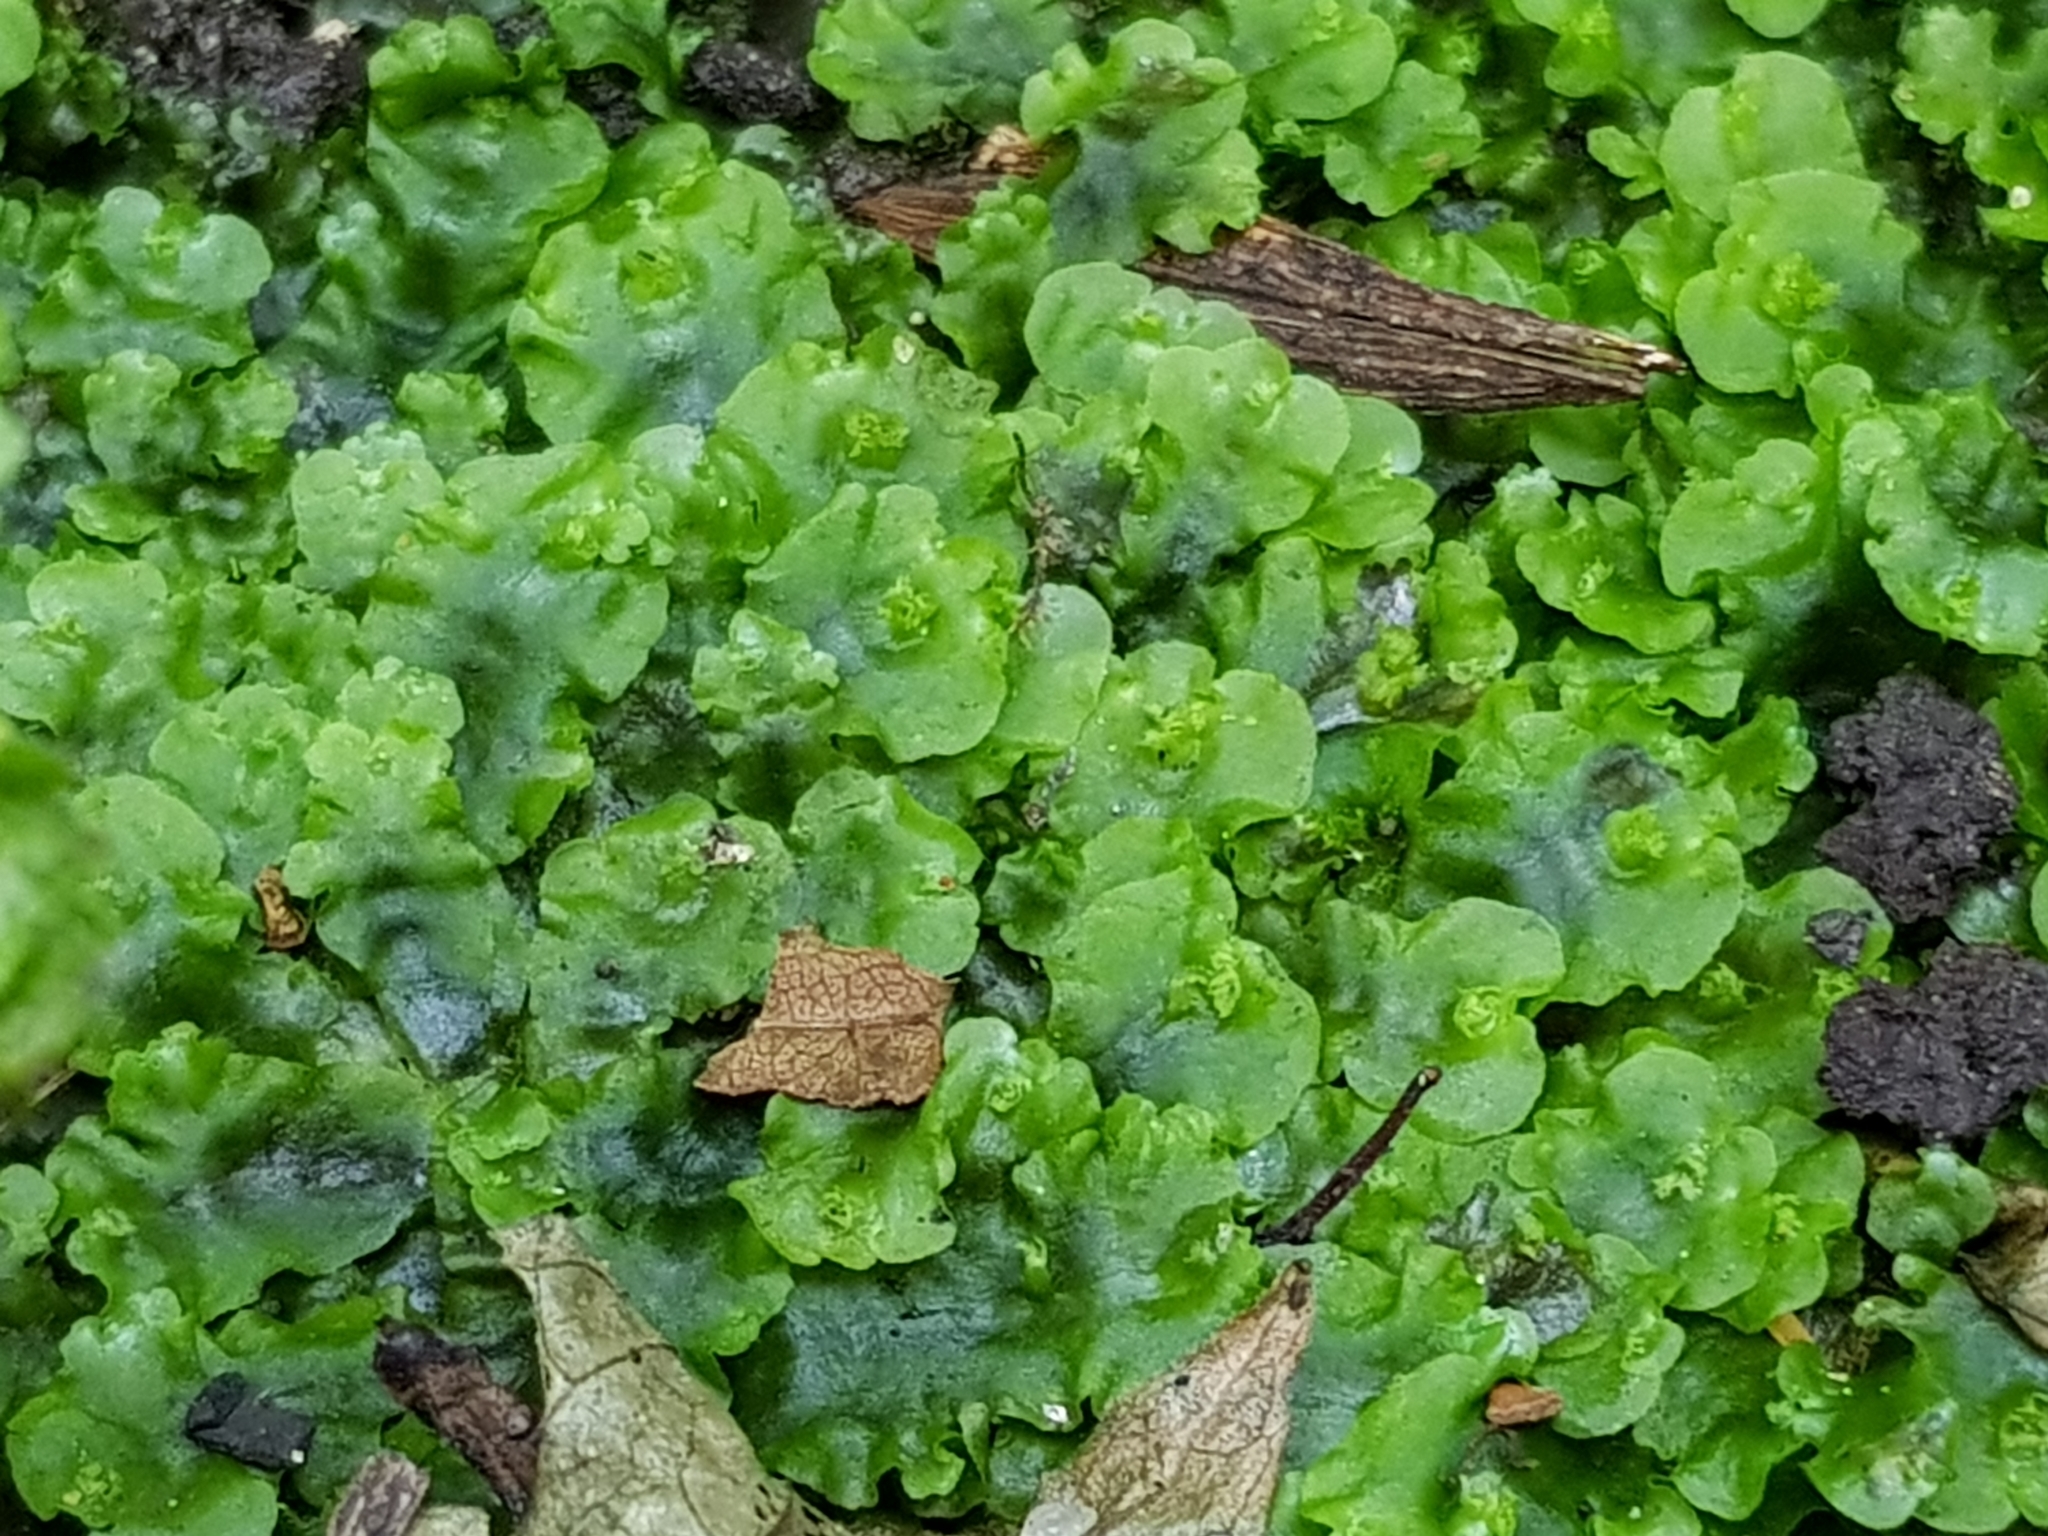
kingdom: Plantae
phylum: Marchantiophyta
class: Jungermanniopsida
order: Pelliales
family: Pelliaceae
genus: Pellia
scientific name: Pellia epiphylla
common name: Common pellia
